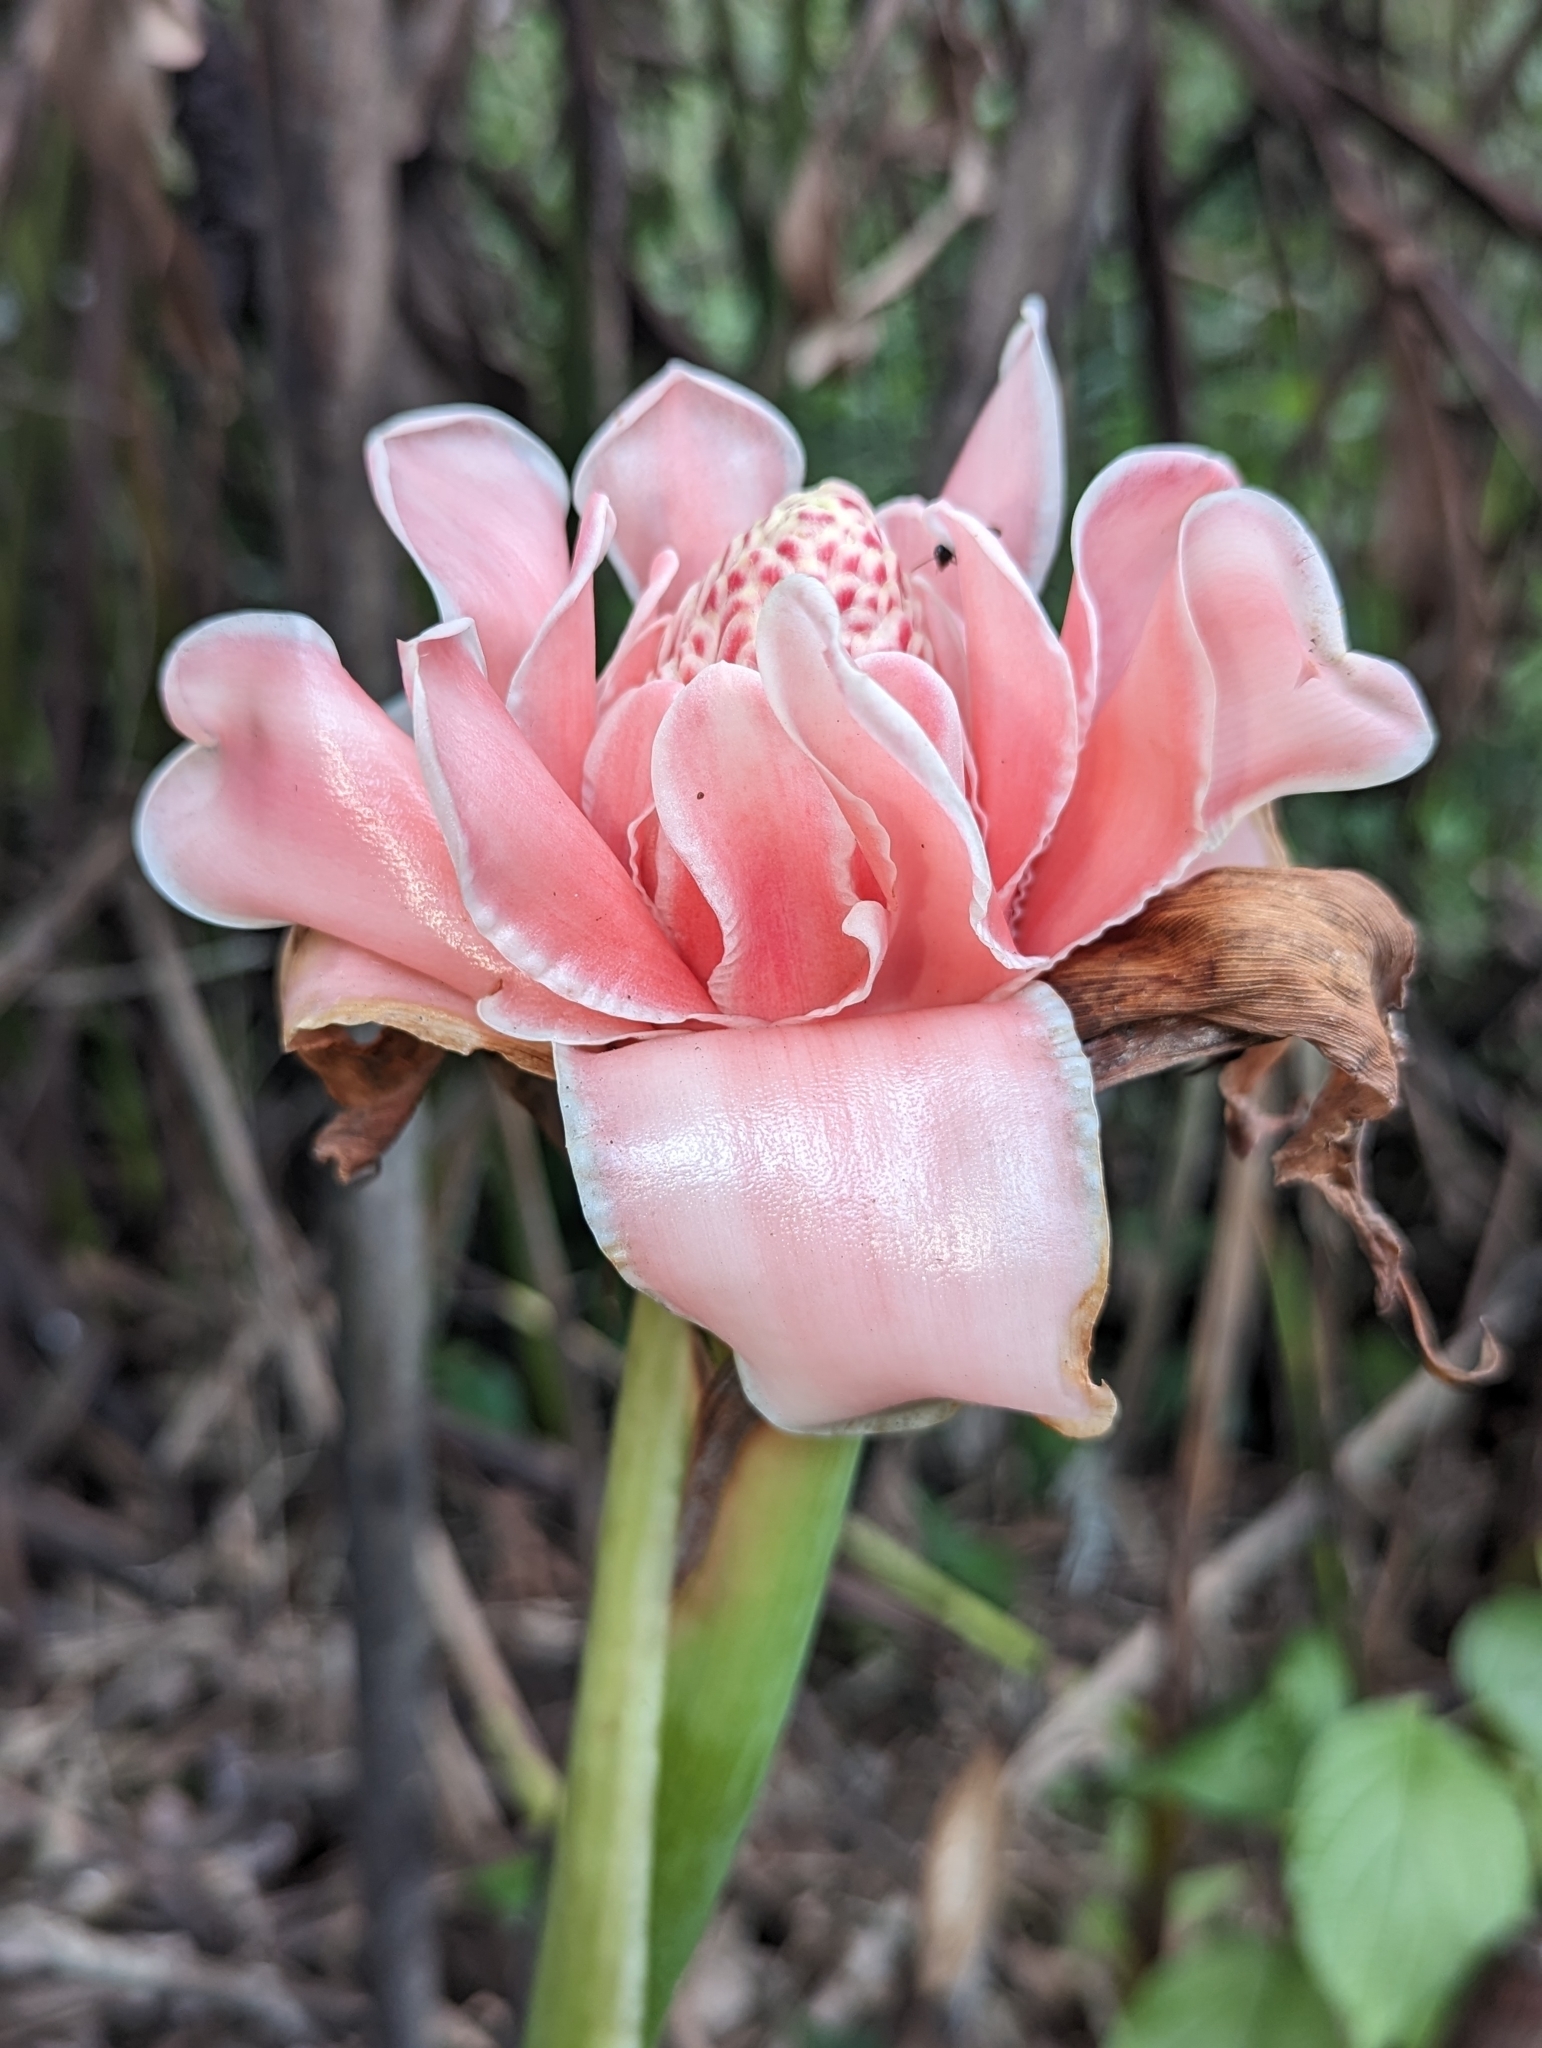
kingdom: Plantae
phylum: Tracheophyta
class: Liliopsida
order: Zingiberales
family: Zingiberaceae
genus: Etlingera
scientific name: Etlingera elatior
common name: Philippine waxflower
